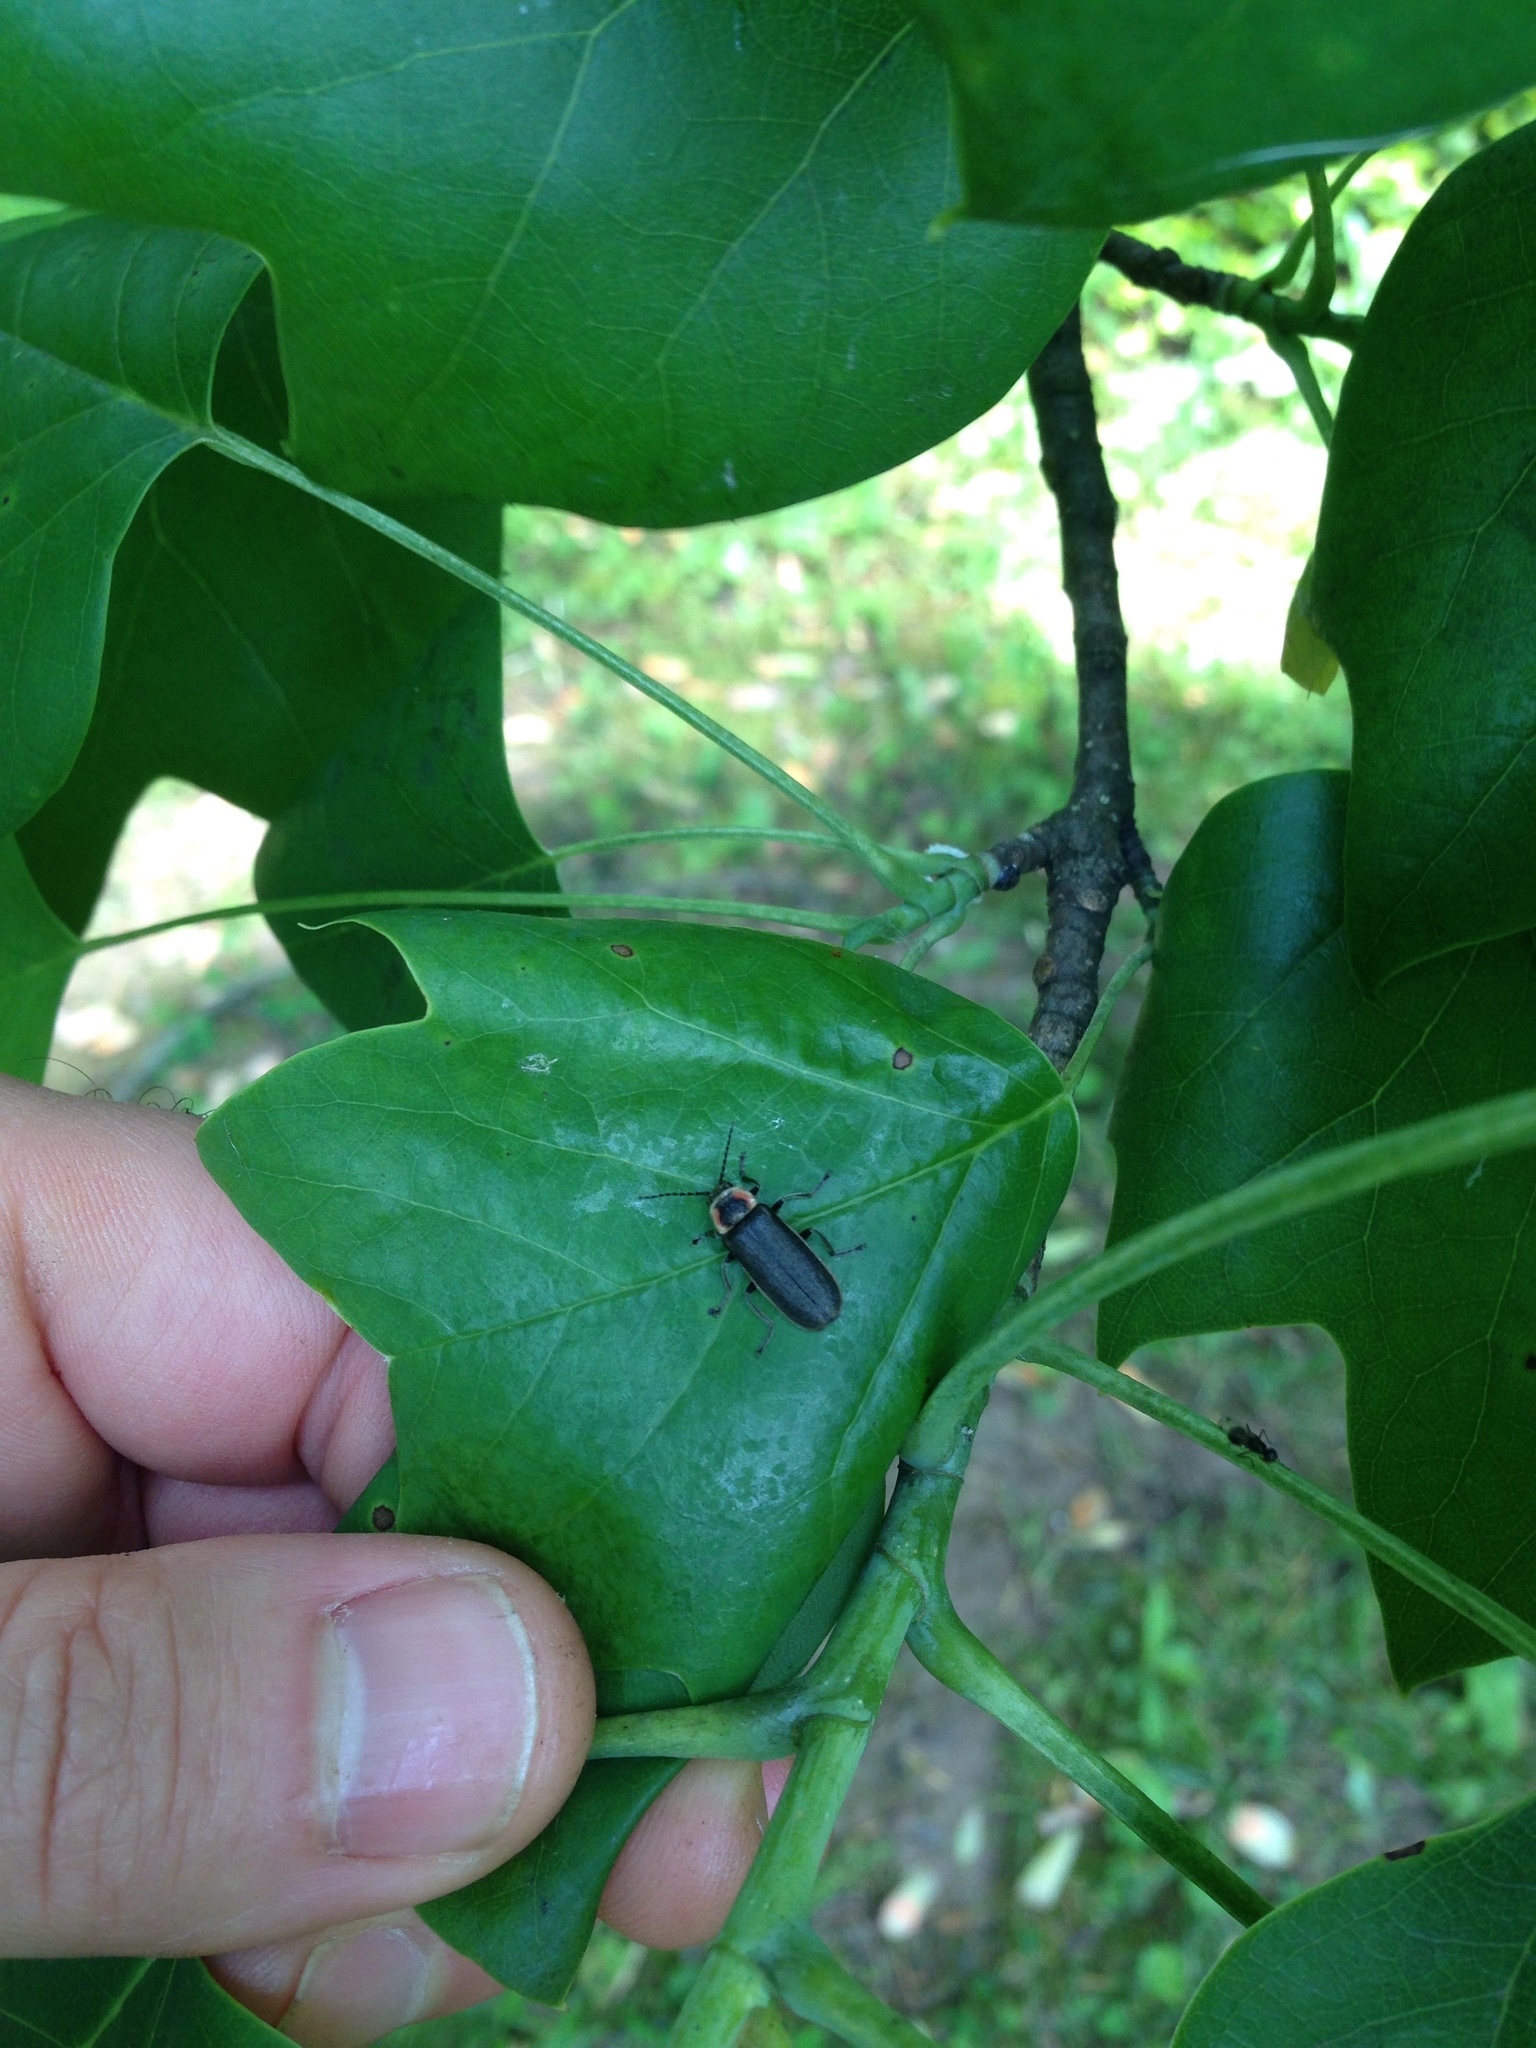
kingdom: Animalia
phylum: Arthropoda
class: Insecta
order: Coleoptera
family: Cantharidae
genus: Atalantycha
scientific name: Atalantycha dentigera
